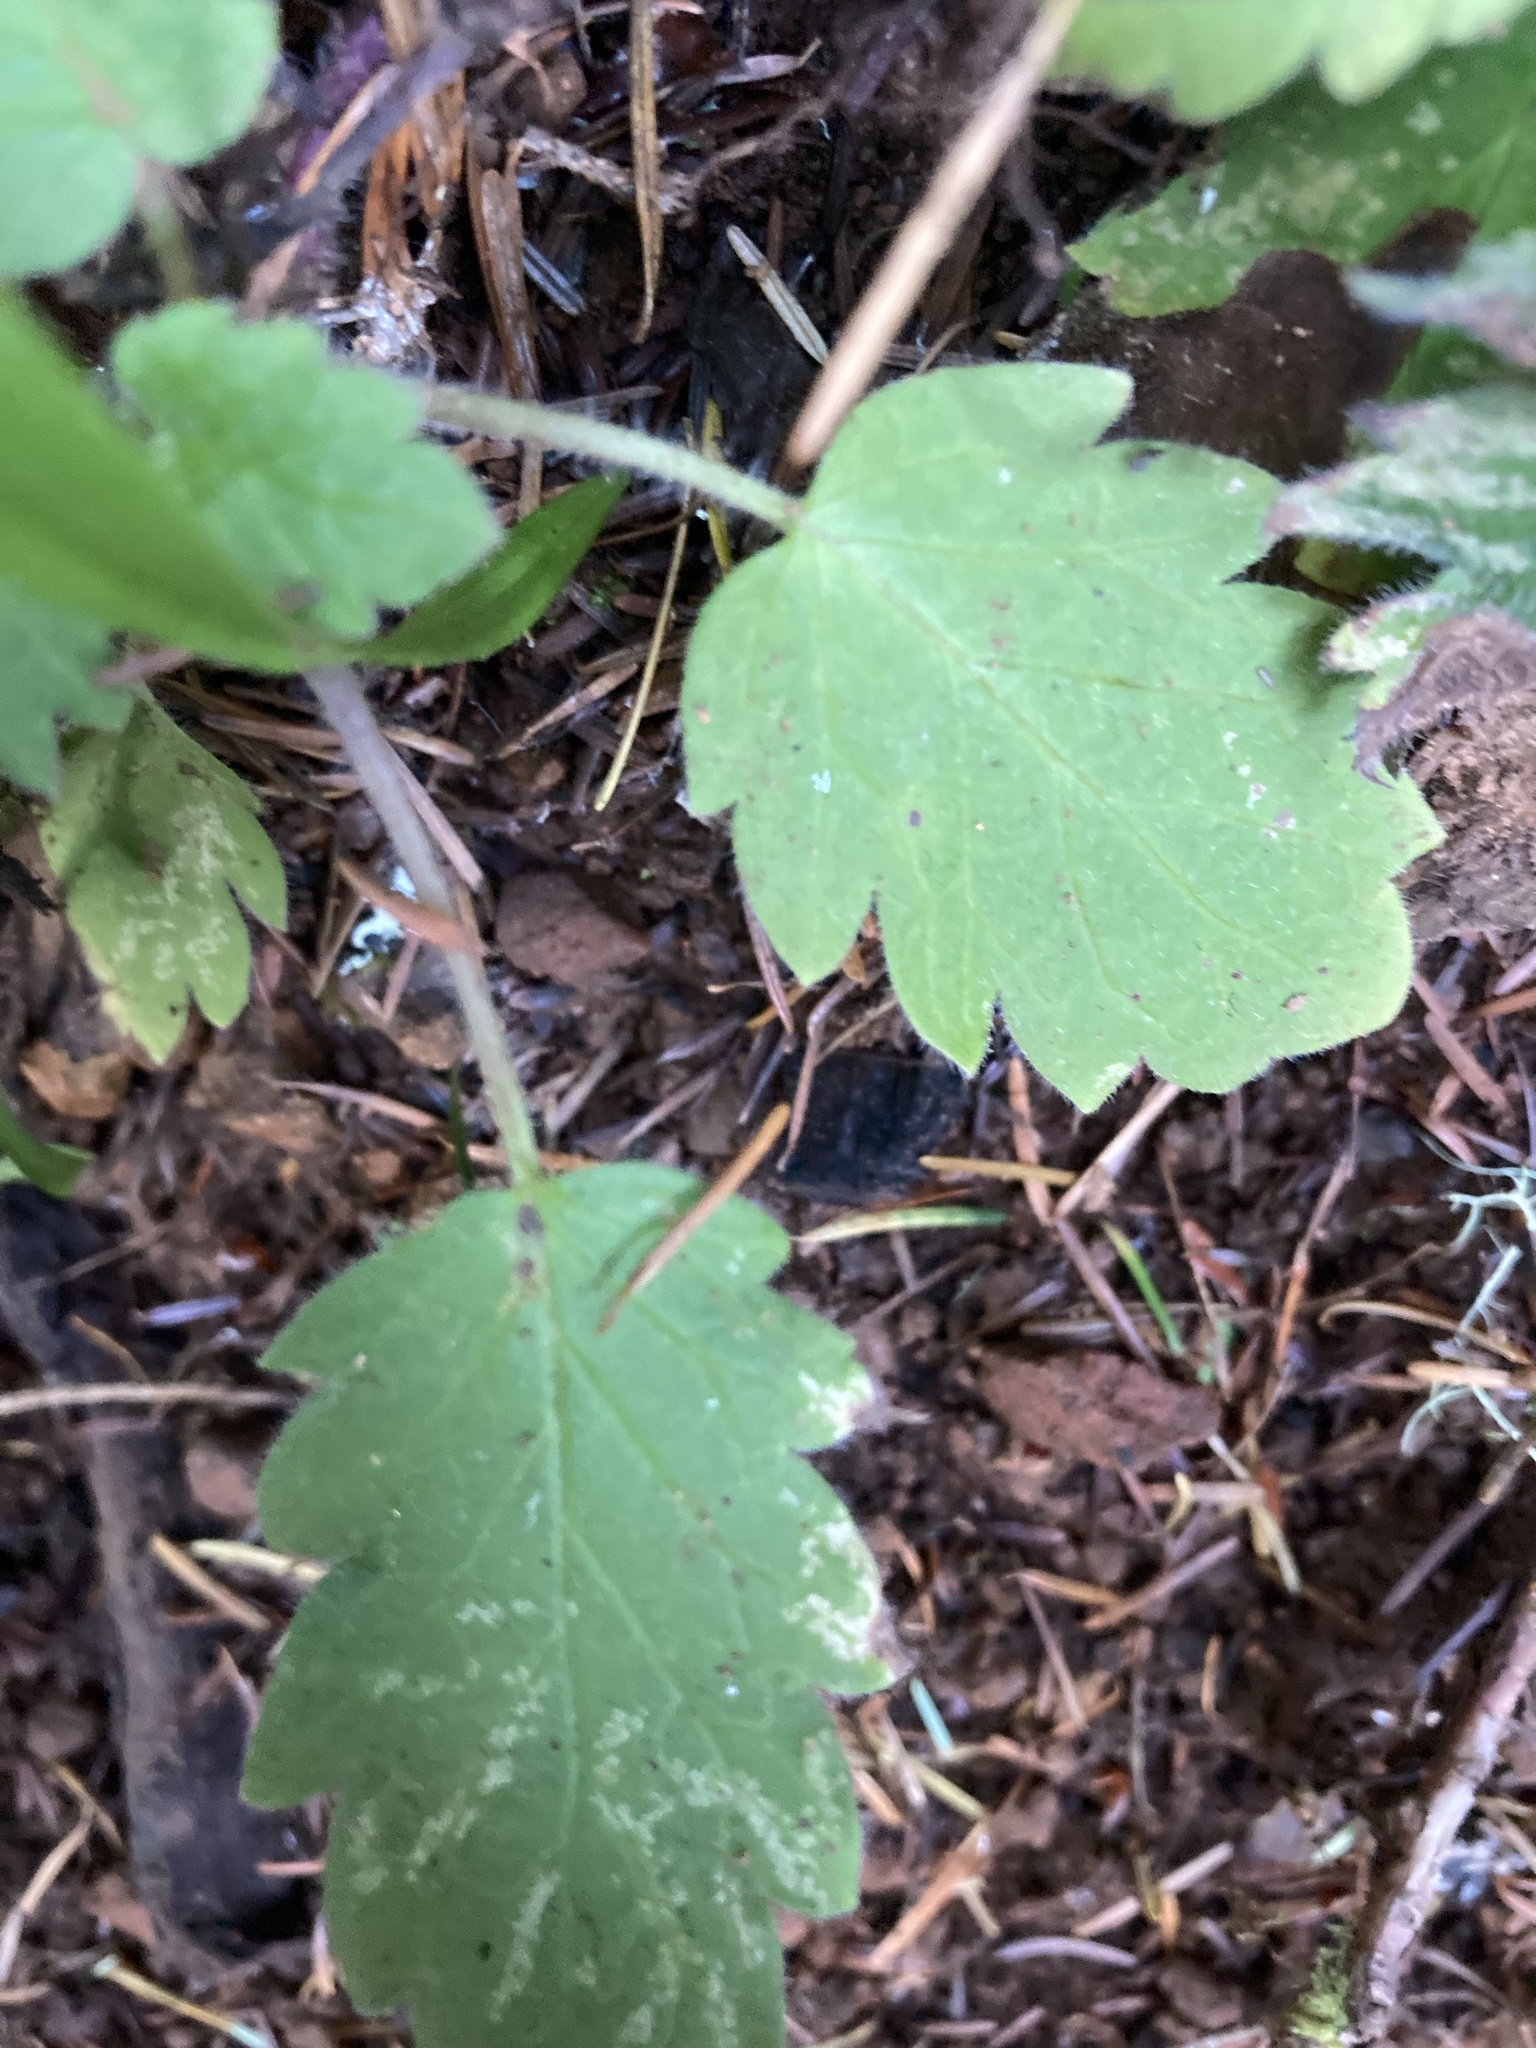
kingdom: Plantae
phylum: Tracheophyta
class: Magnoliopsida
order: Boraginales
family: Hydrophyllaceae
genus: Phacelia
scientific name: Phacelia bolanderi
